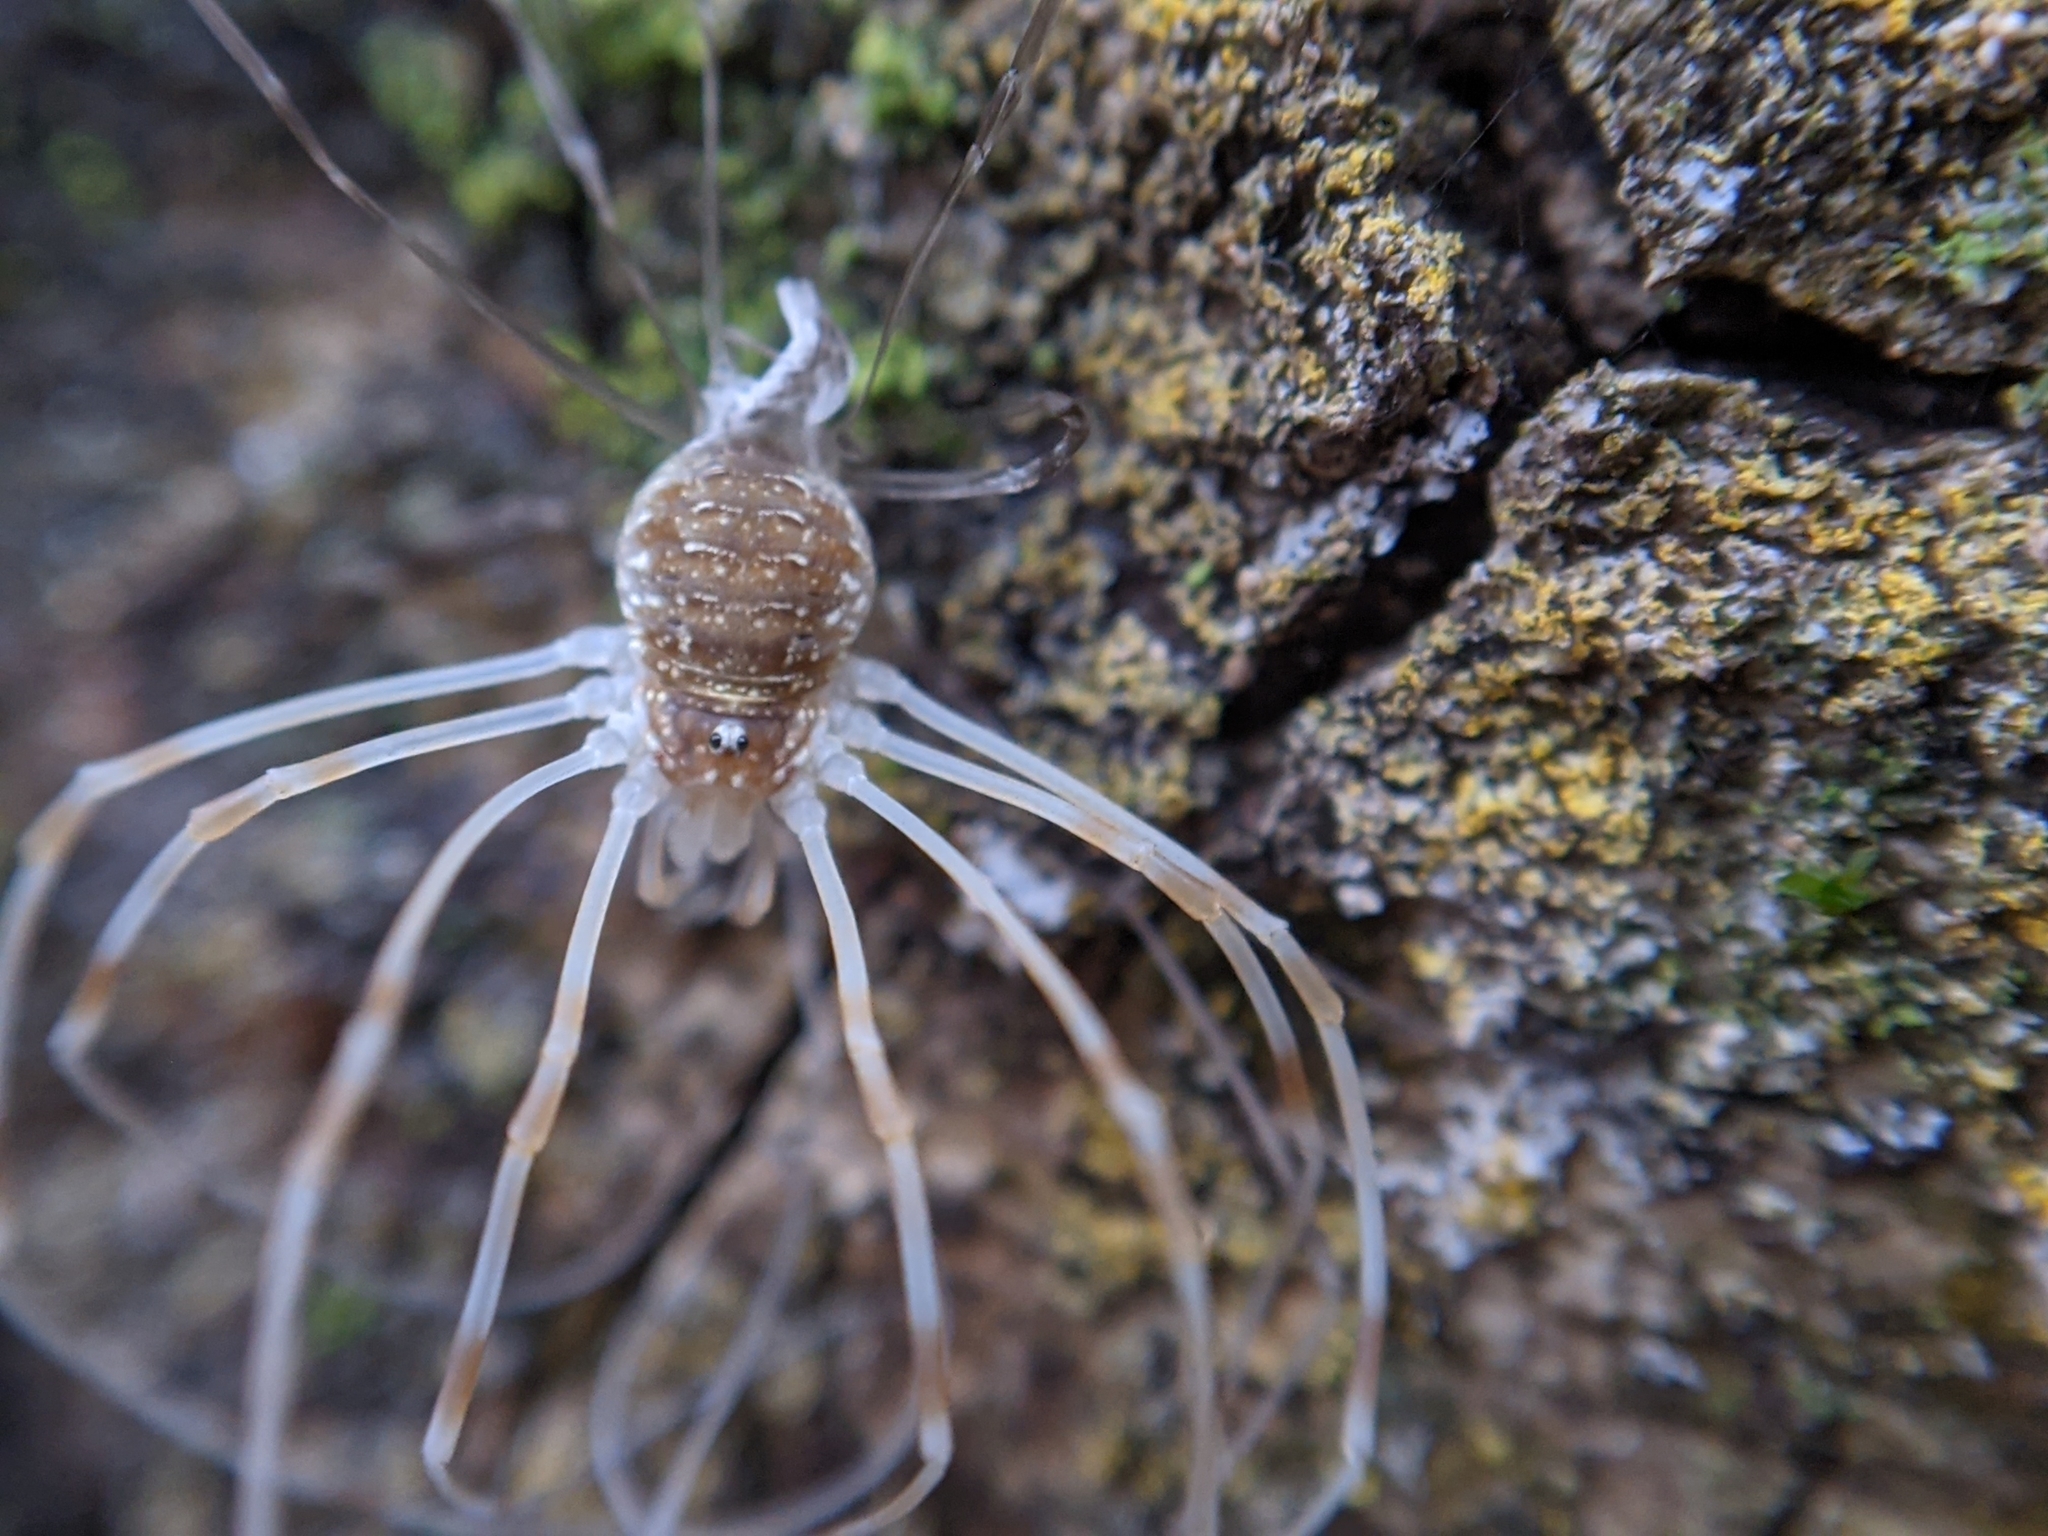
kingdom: Animalia
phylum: Arthropoda
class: Arachnida
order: Opiliones
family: Phalangiidae
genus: Opilio
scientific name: Opilio canestrinii
